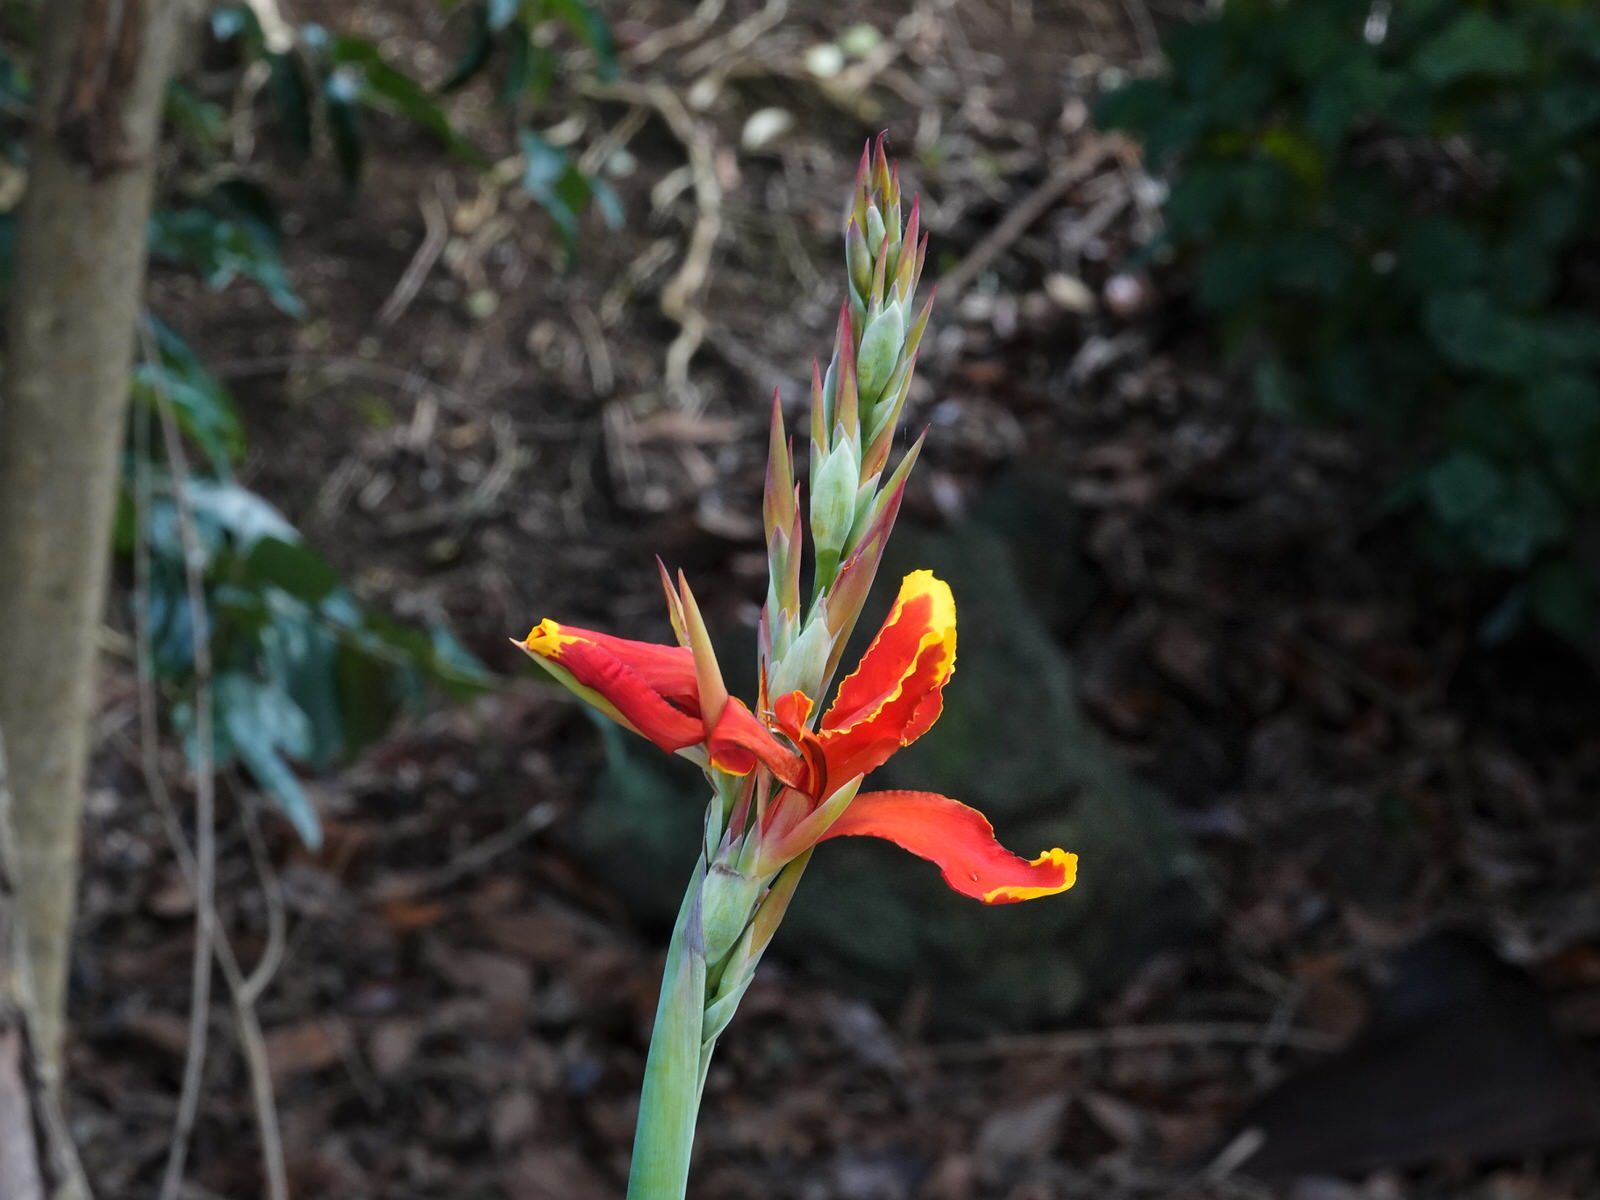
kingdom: Plantae
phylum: Tracheophyta
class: Liliopsida
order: Zingiberales
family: Cannaceae
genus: Canna
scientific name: Canna hybrida
